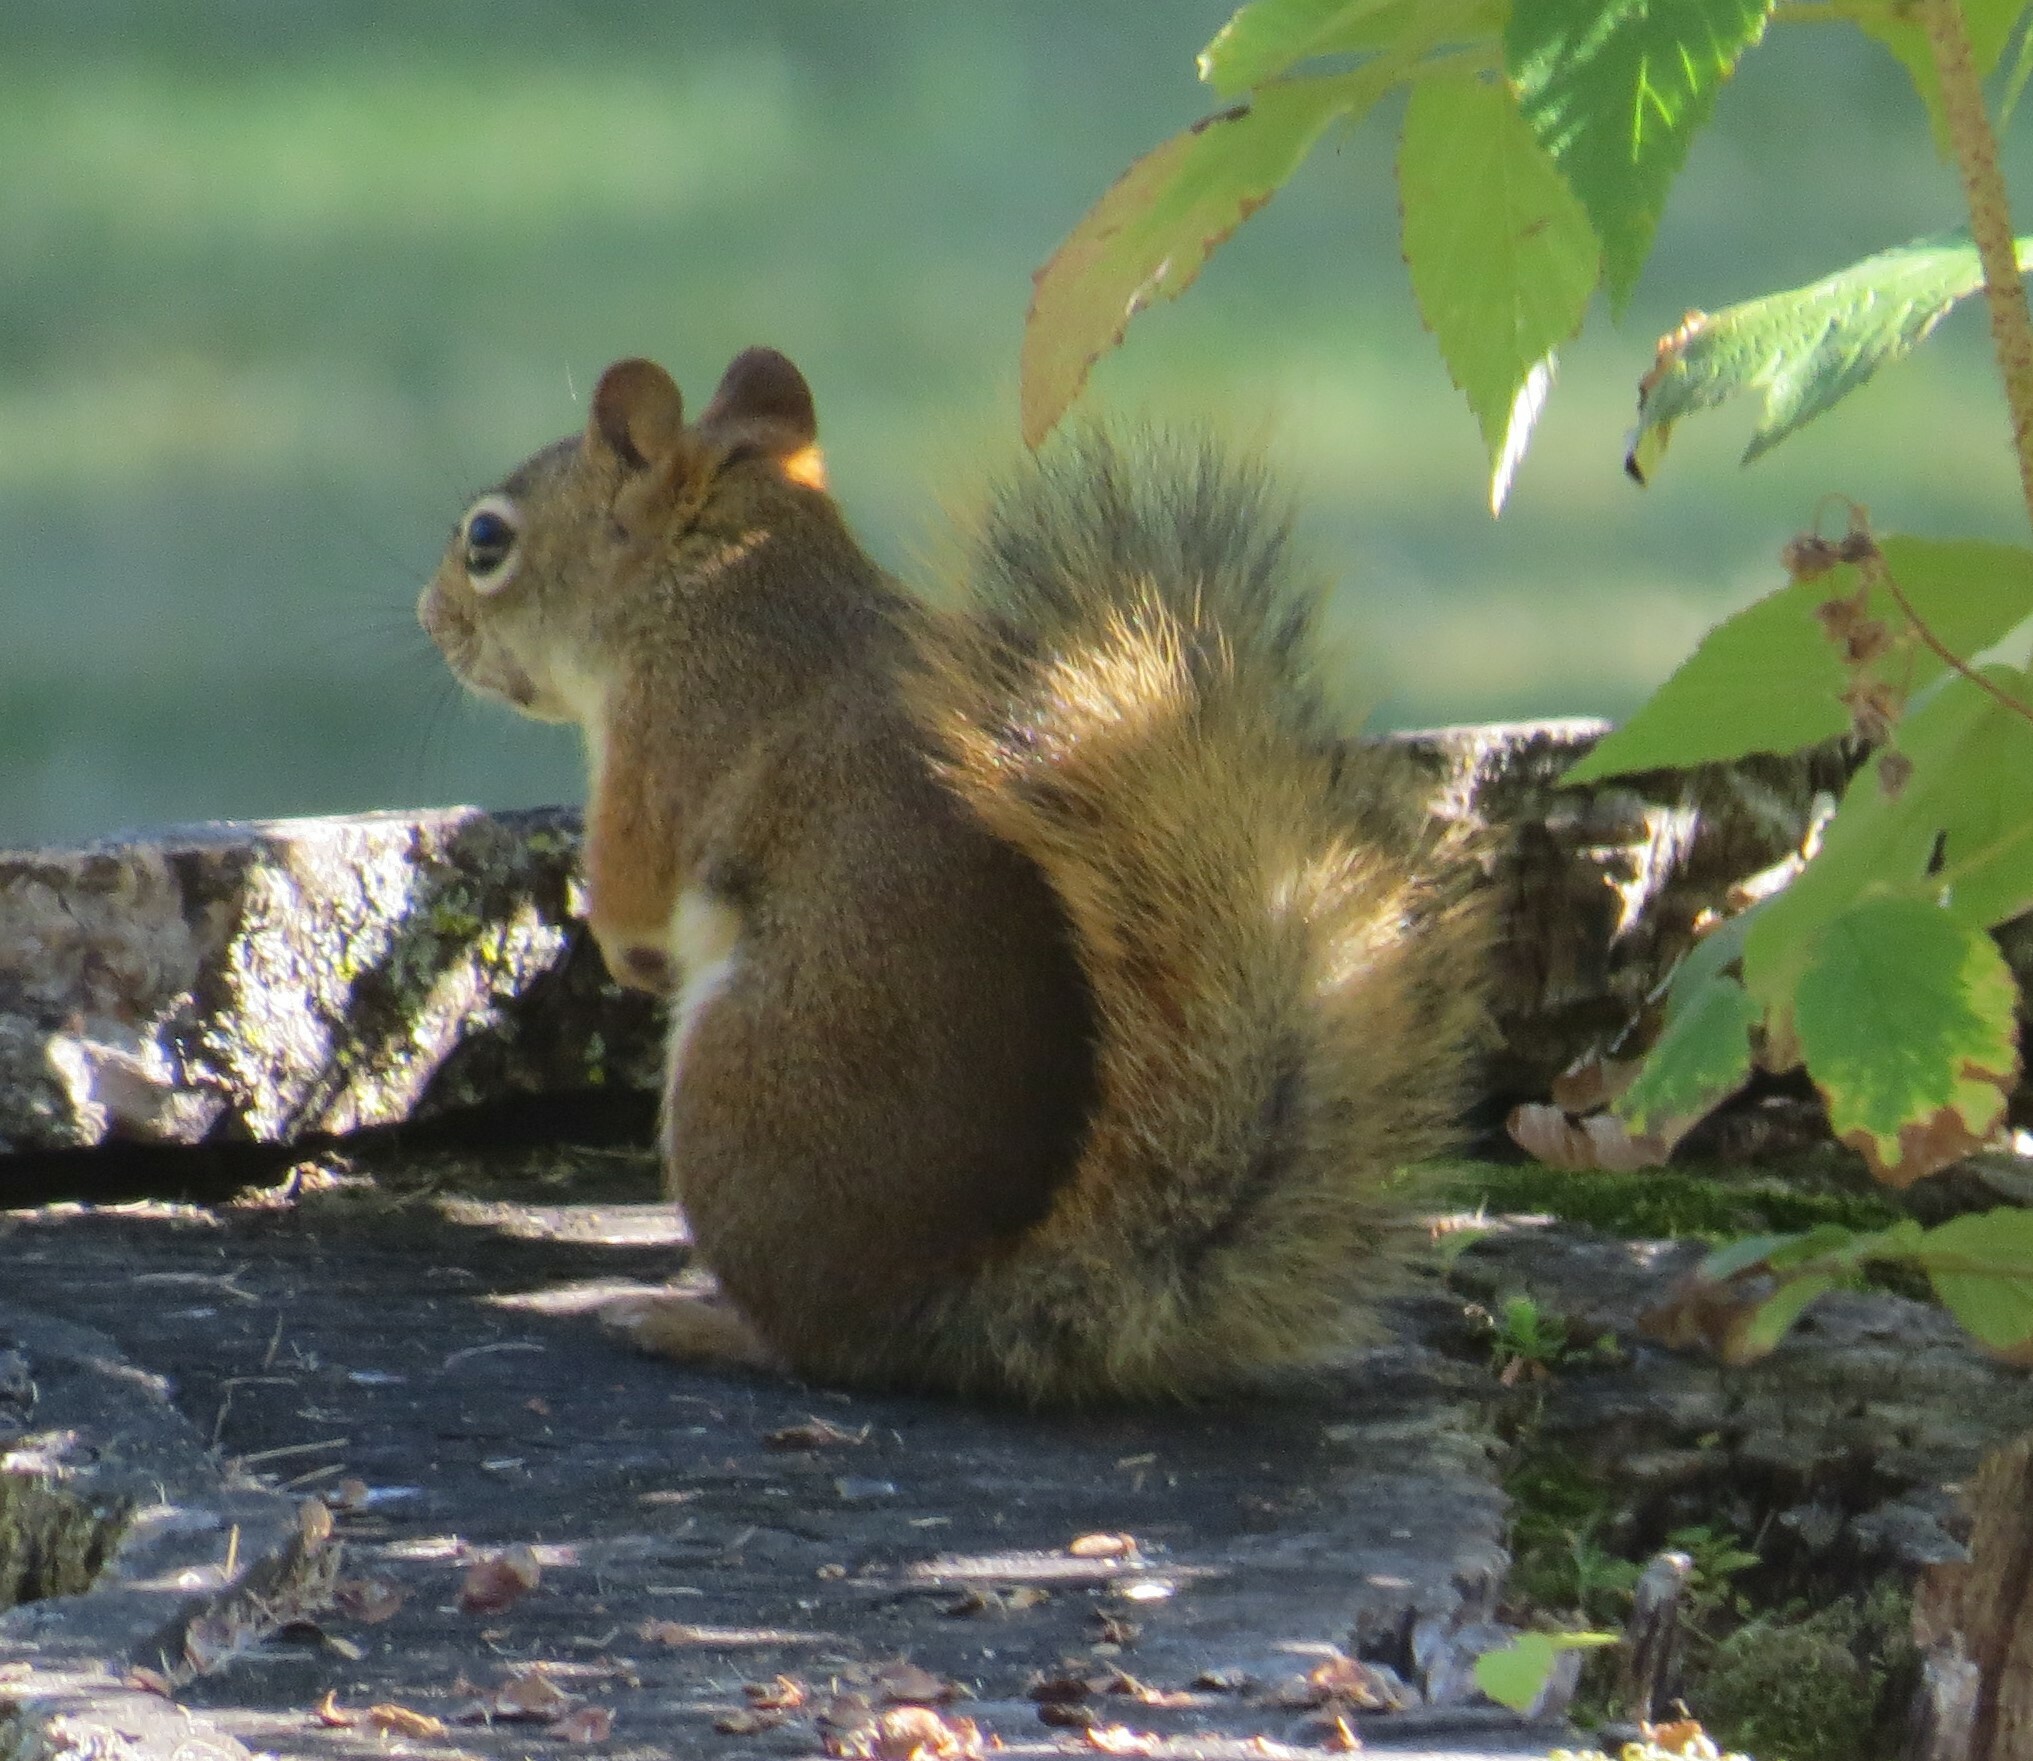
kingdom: Animalia
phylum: Chordata
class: Mammalia
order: Rodentia
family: Sciuridae
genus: Tamiasciurus
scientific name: Tamiasciurus hudsonicus
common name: Red squirrel
